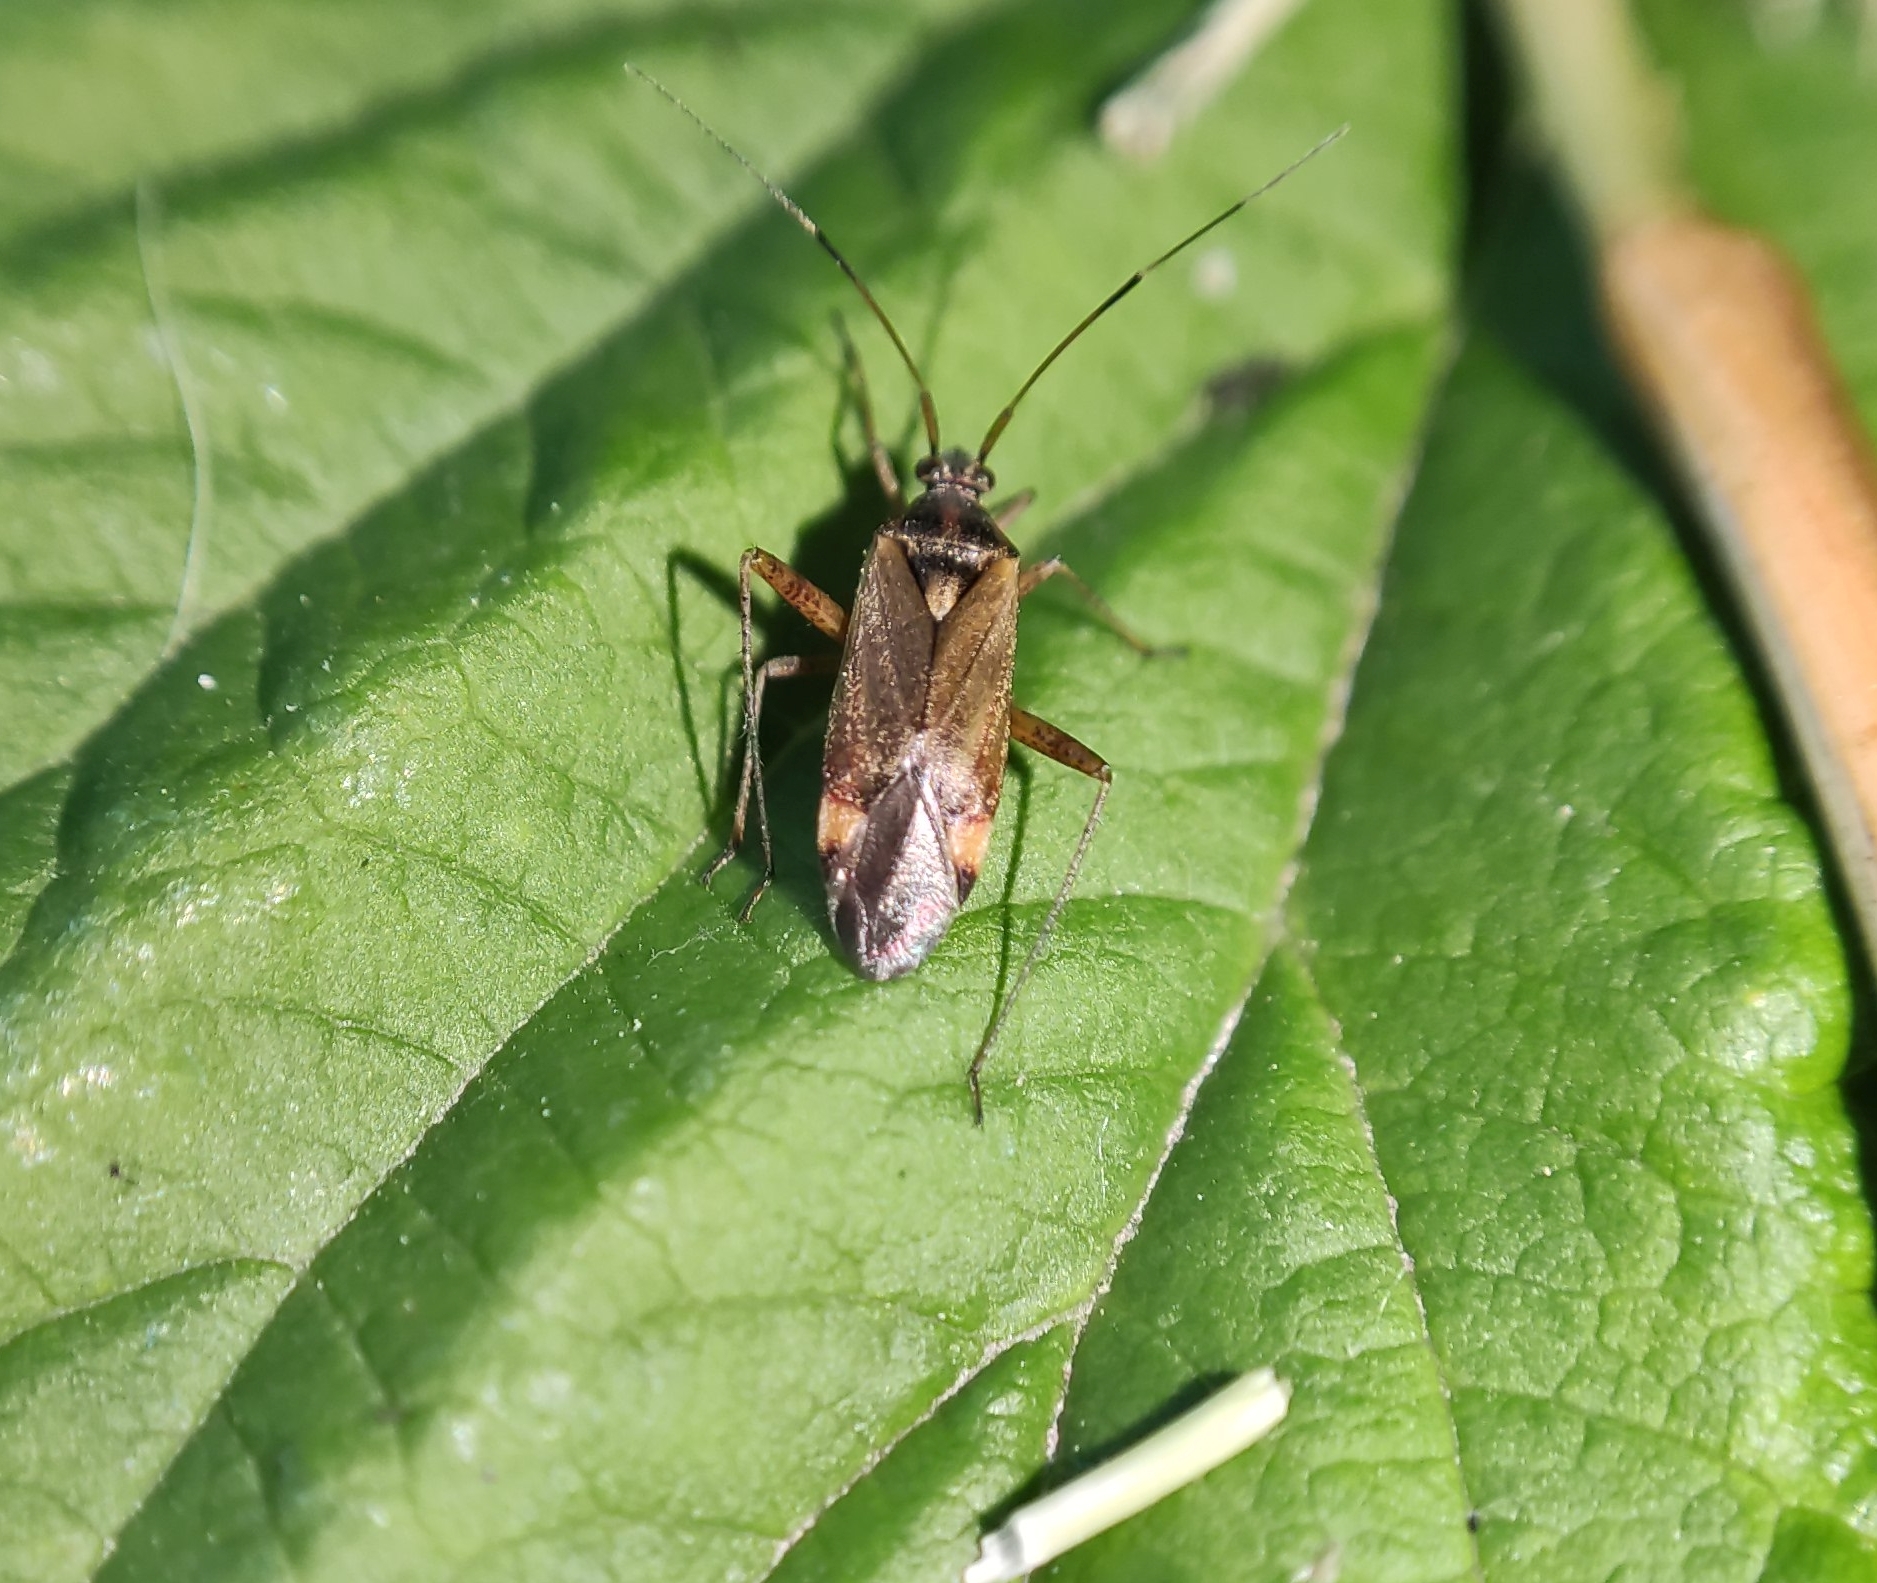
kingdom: Animalia
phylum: Arthropoda
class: Insecta
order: Hemiptera
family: Miridae
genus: Closterotomus
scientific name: Closterotomus fulvomaculatus
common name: Spotted plant bug
